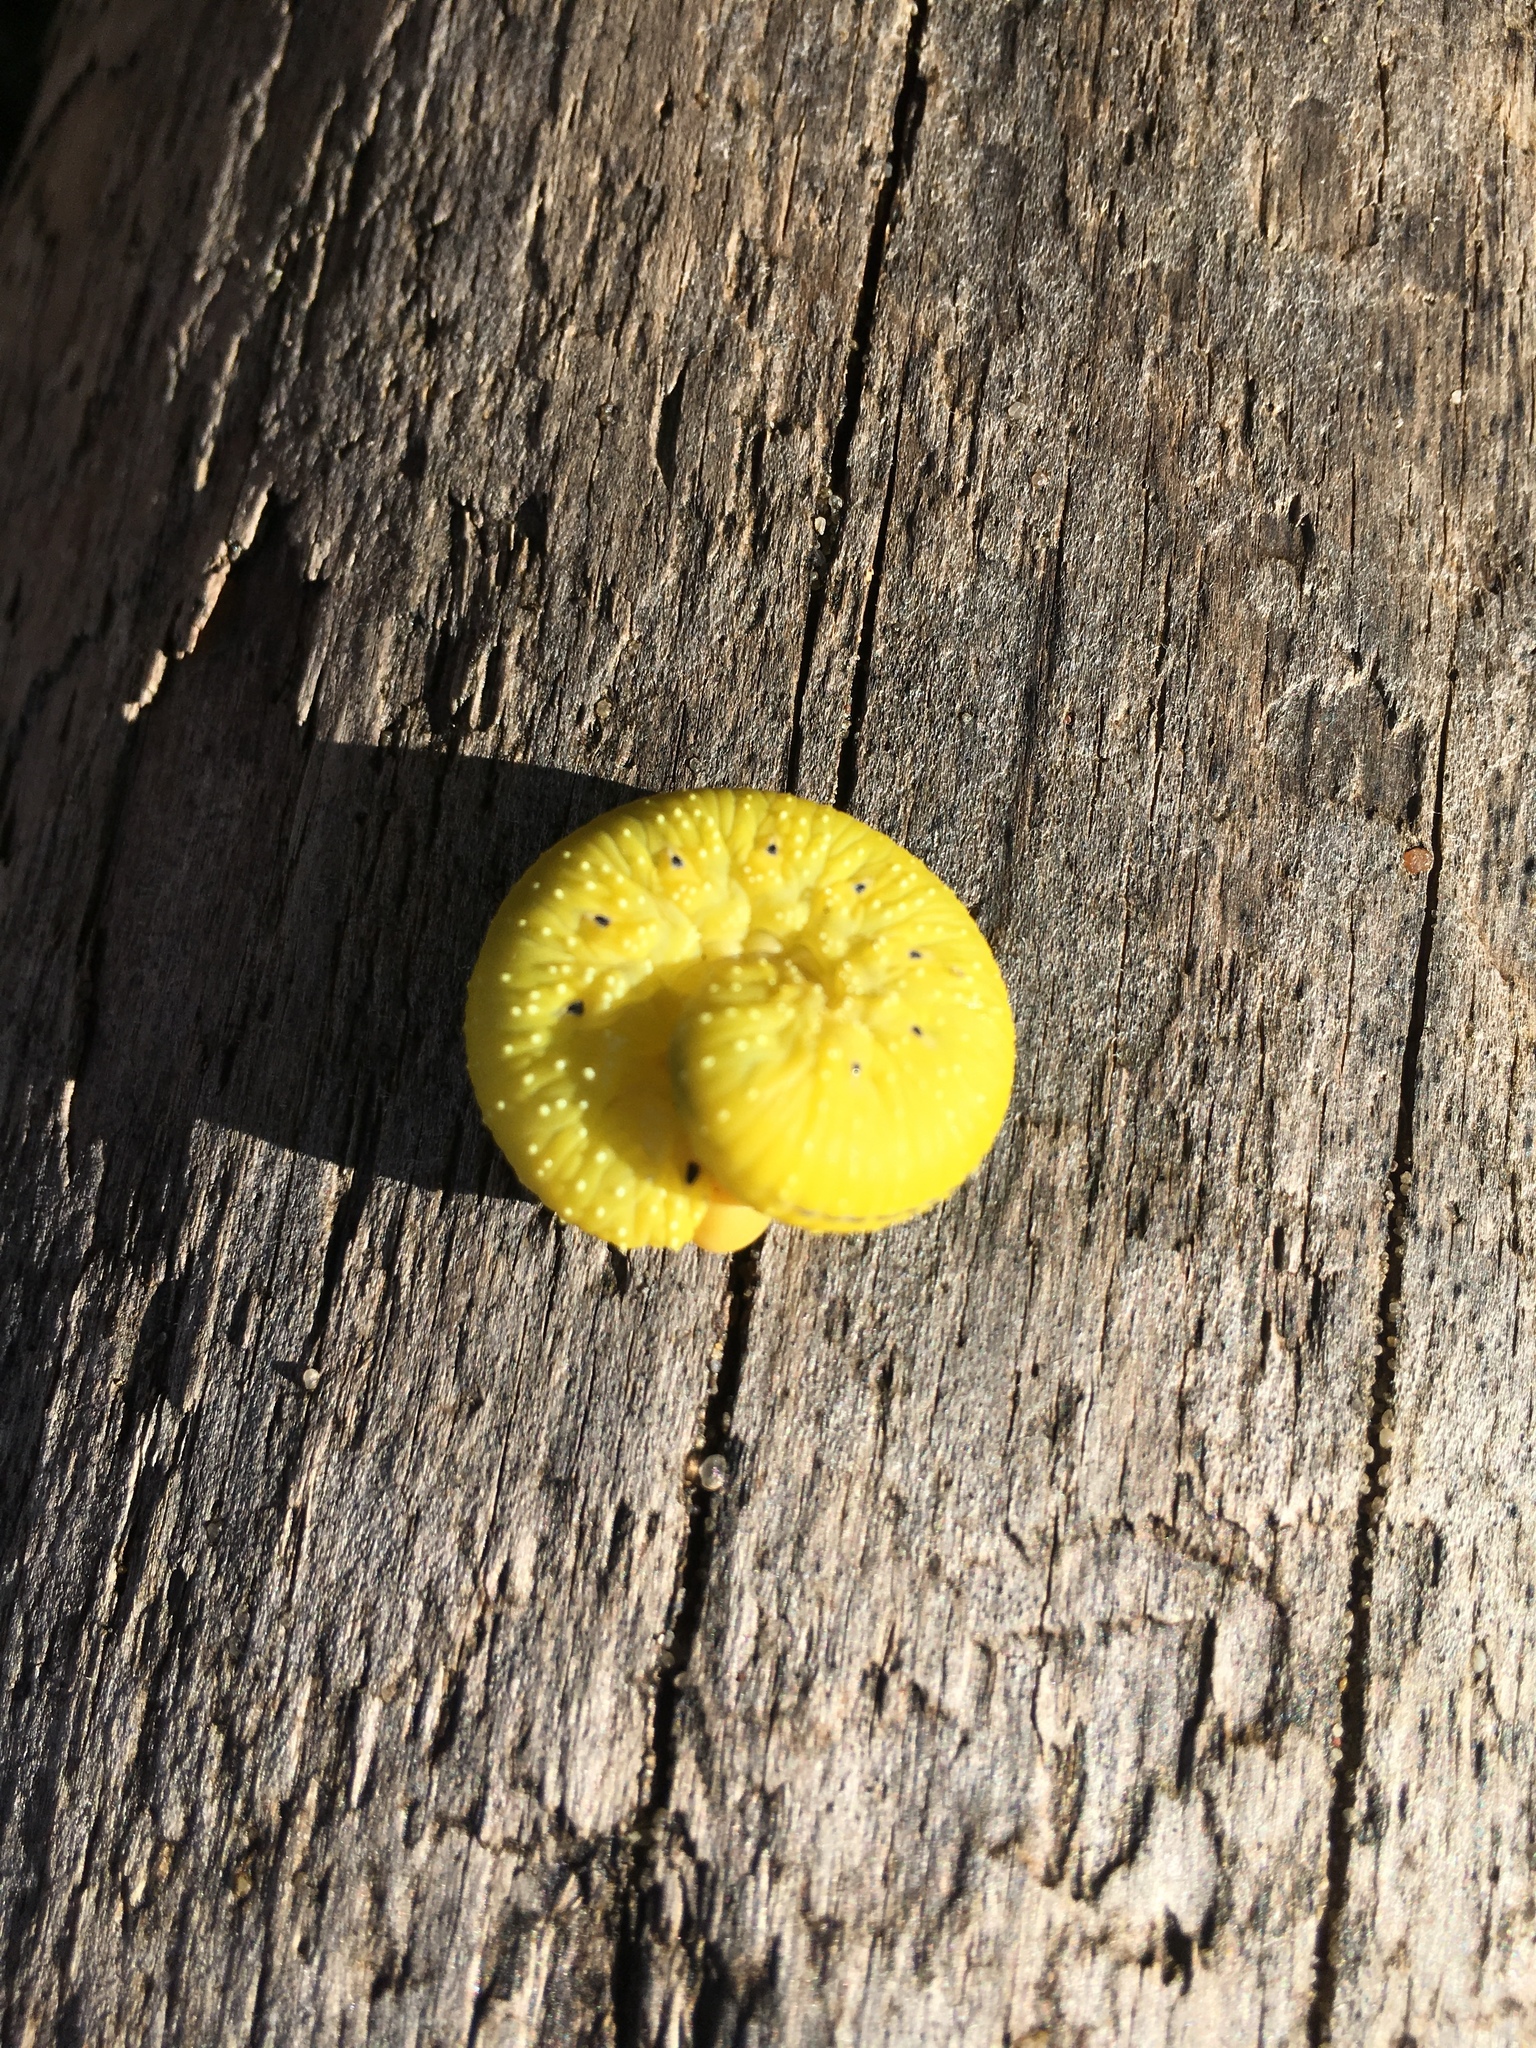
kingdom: Animalia
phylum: Arthropoda
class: Insecta
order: Hymenoptera
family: Cimbicidae
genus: Cimbex
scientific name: Cimbex americana
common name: Elm sawfly
